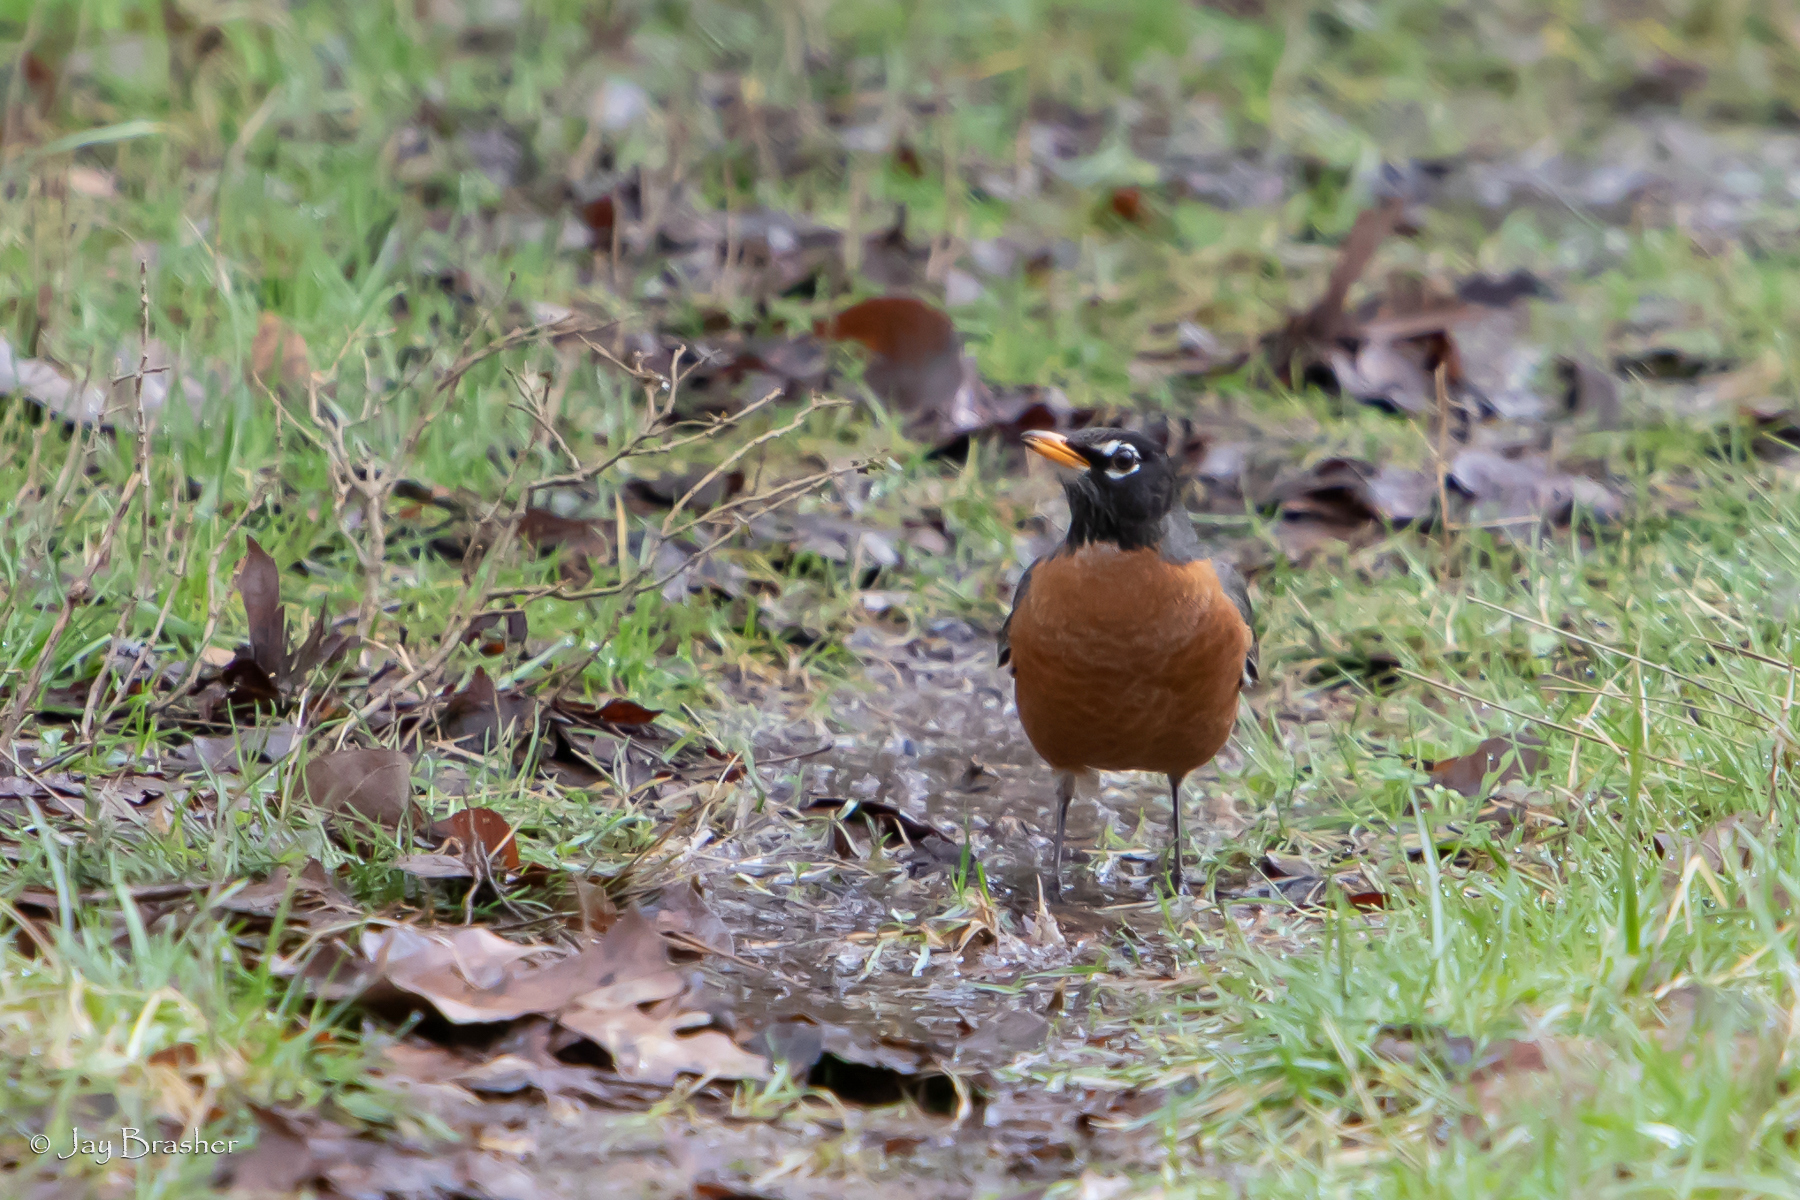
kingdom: Animalia
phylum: Chordata
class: Aves
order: Passeriformes
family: Turdidae
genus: Turdus
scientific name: Turdus migratorius
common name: American robin
